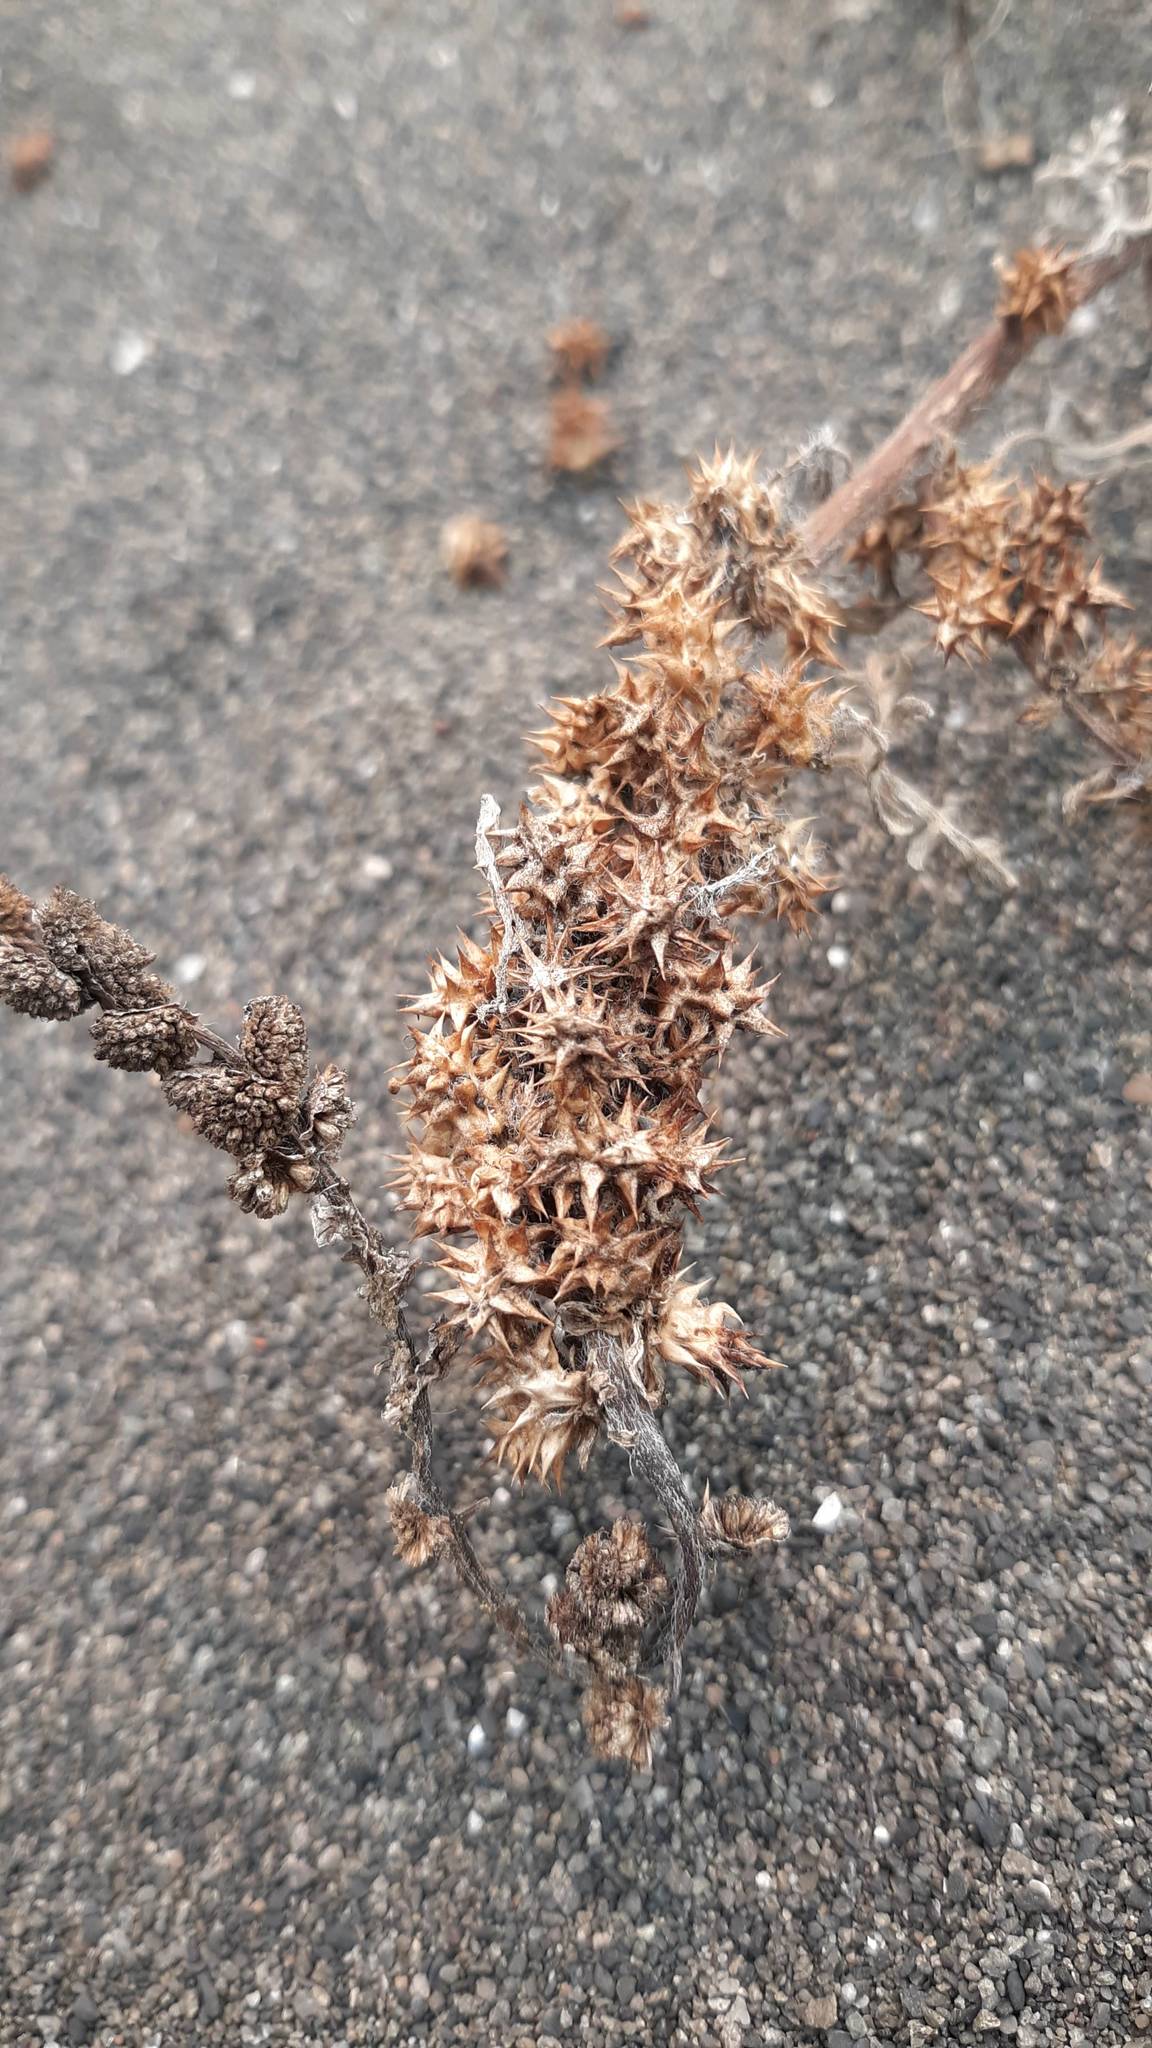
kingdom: Plantae
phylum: Tracheophyta
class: Magnoliopsida
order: Asterales
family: Asteraceae
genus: Ambrosia
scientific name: Ambrosia chamissonis
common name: Beachbur
